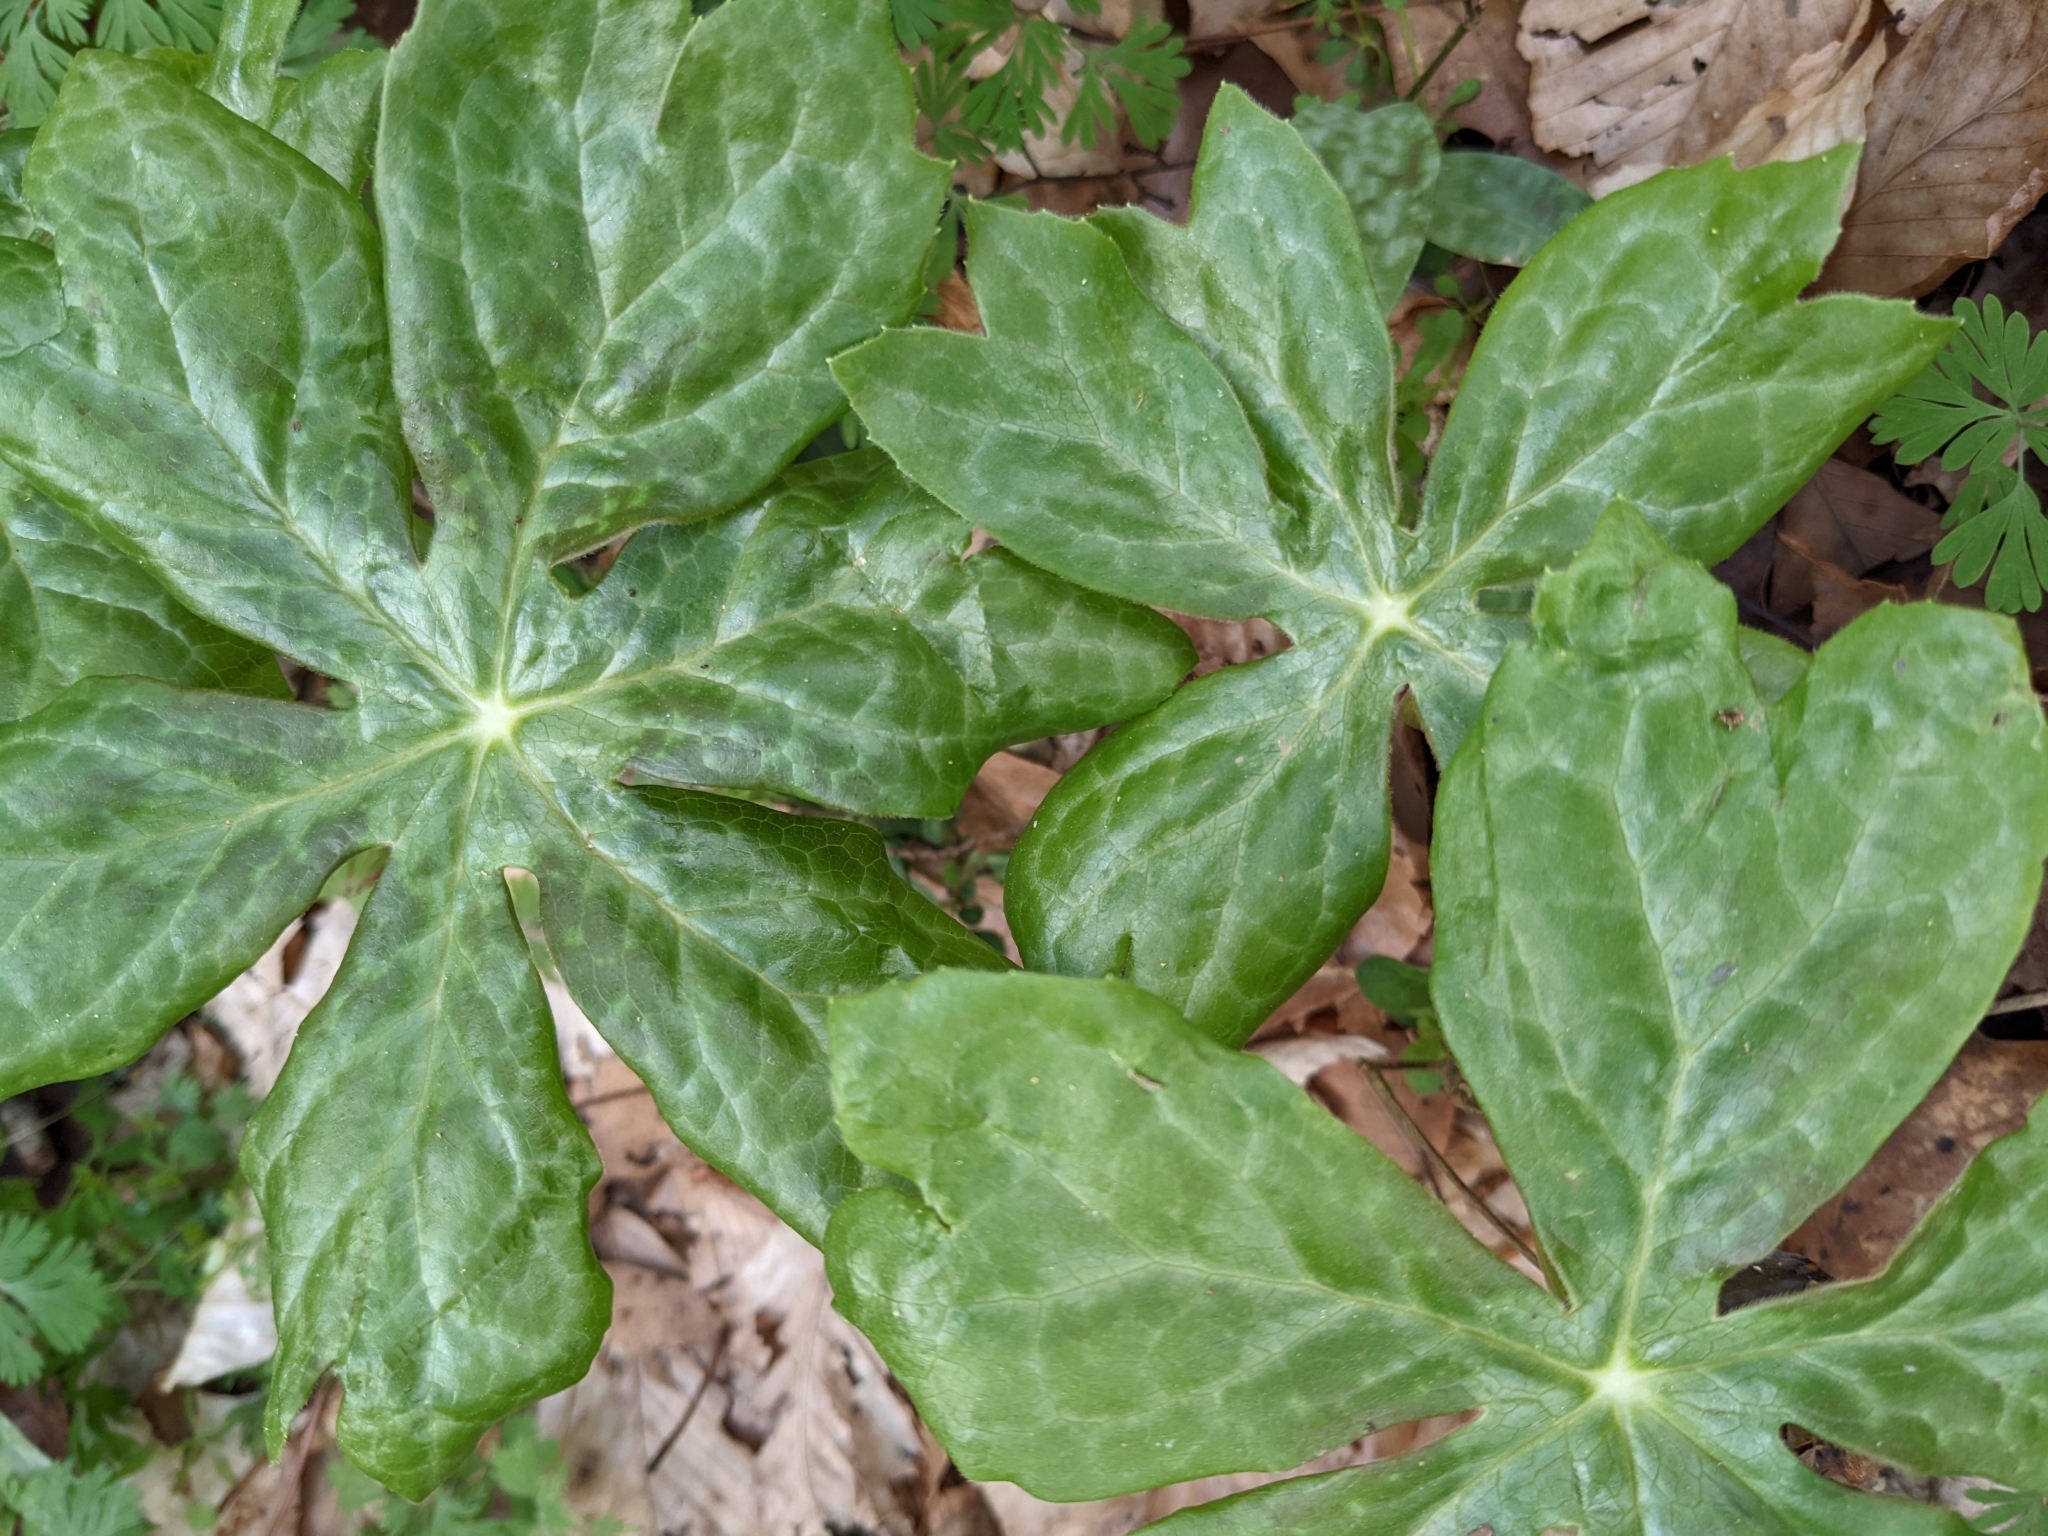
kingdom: Plantae
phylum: Tracheophyta
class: Magnoliopsida
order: Ranunculales
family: Berberidaceae
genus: Podophyllum
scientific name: Podophyllum peltatum
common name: Wild mandrake
